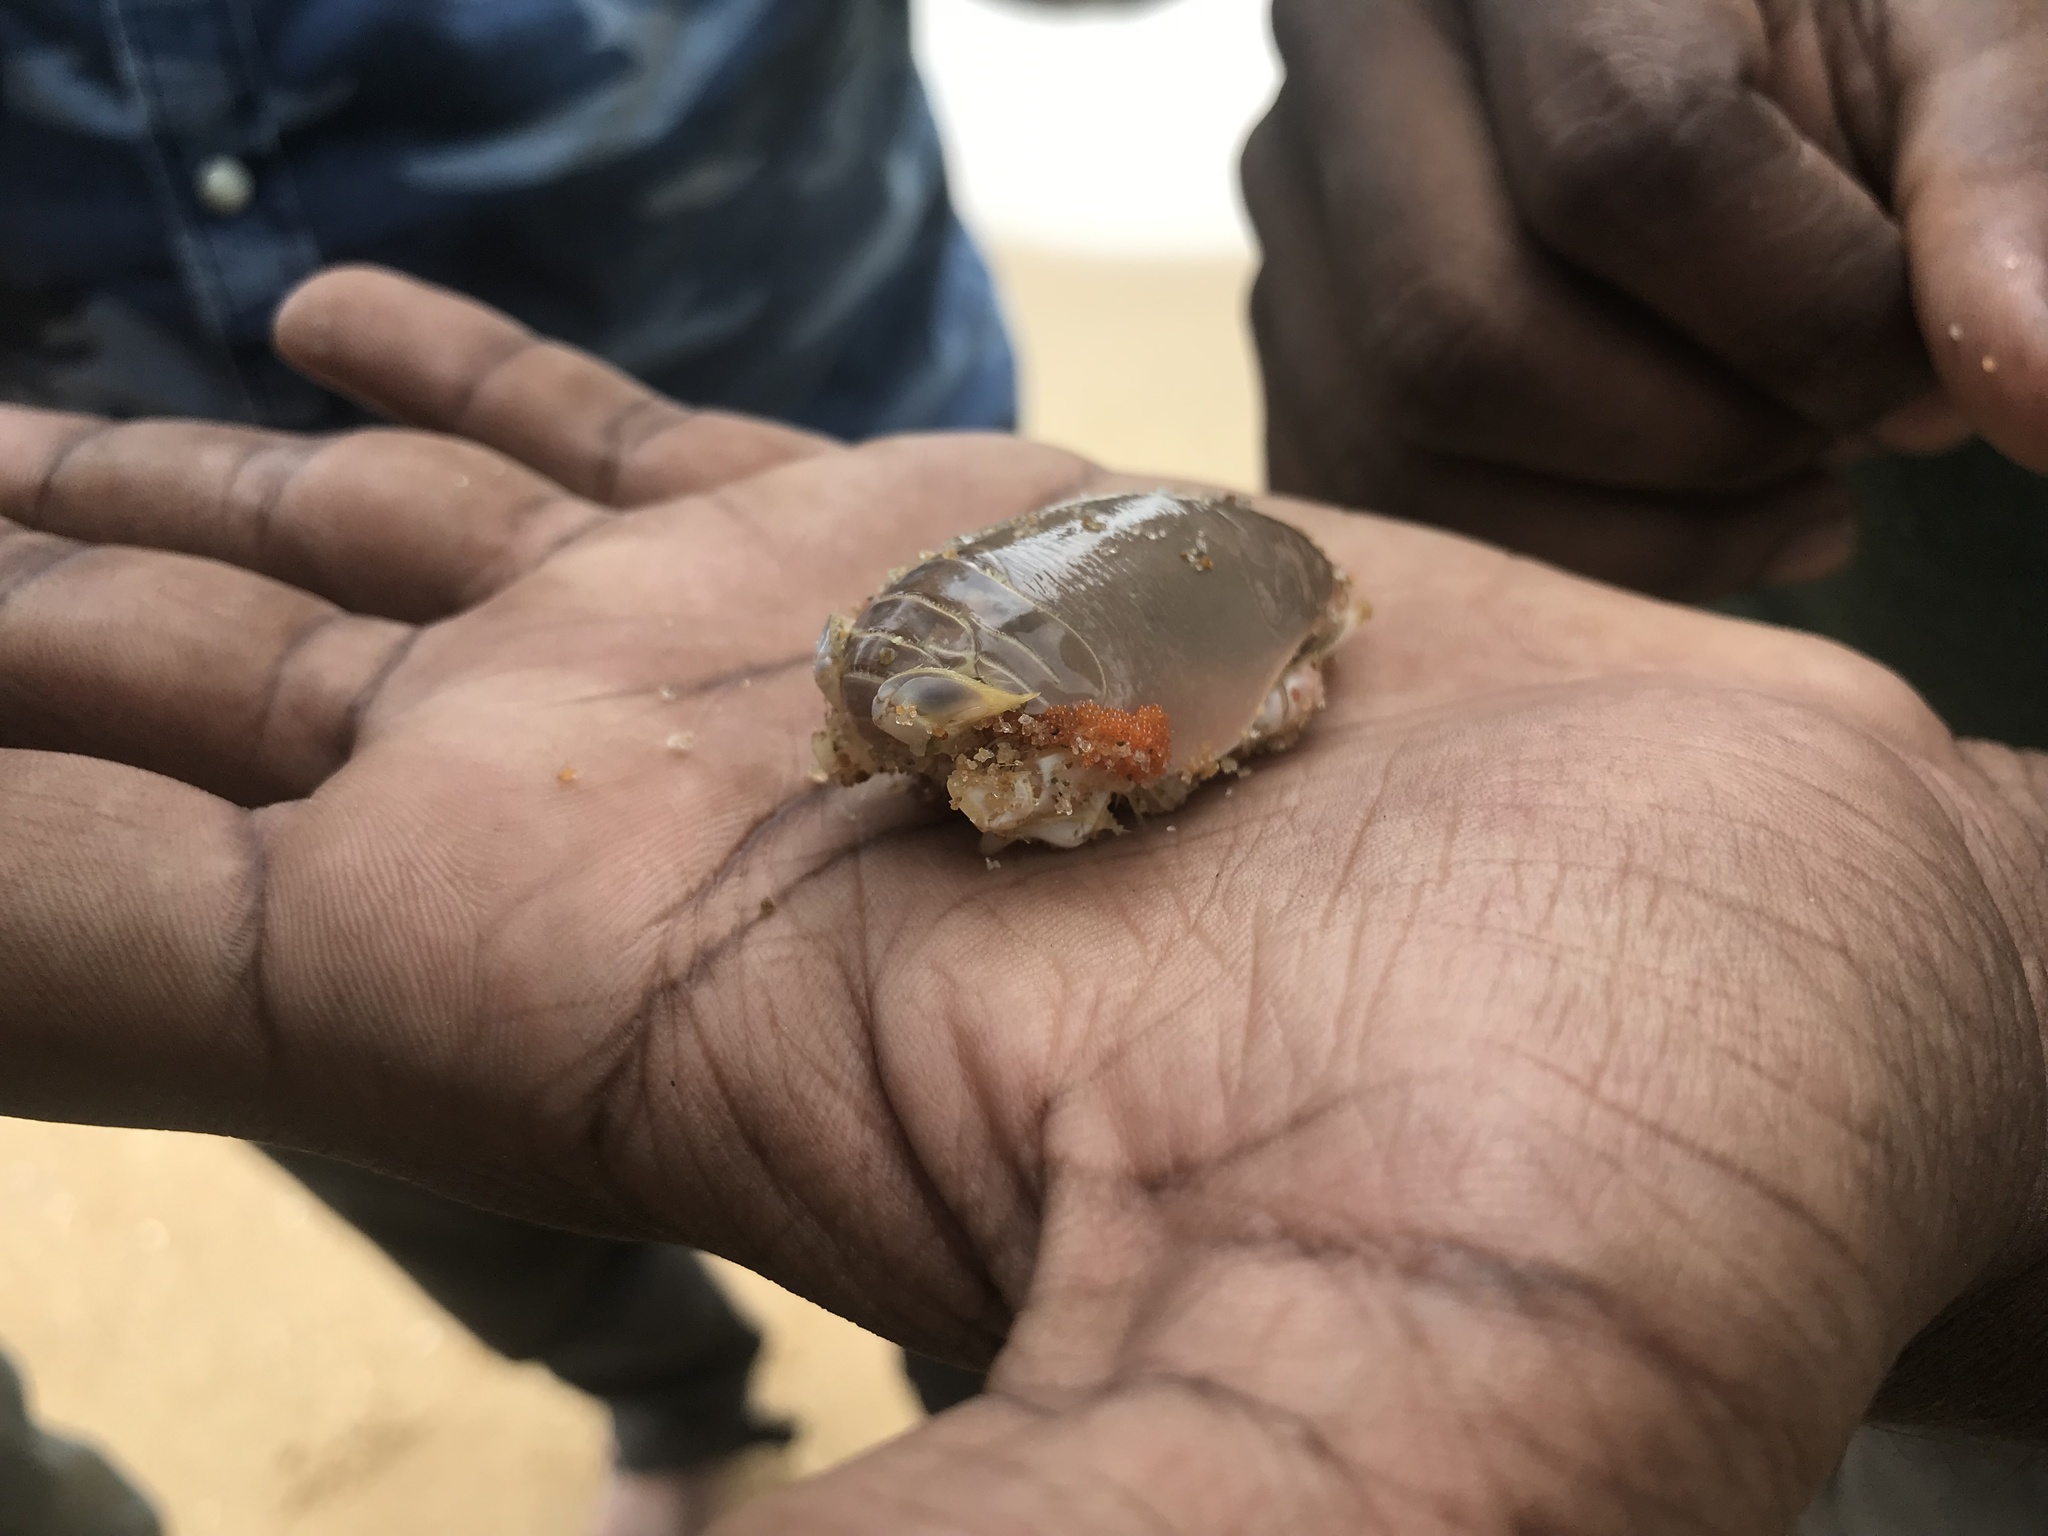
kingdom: Animalia
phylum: Arthropoda
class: Malacostraca
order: Decapoda
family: Hippidae
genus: Emerita
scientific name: Emerita emeritus
